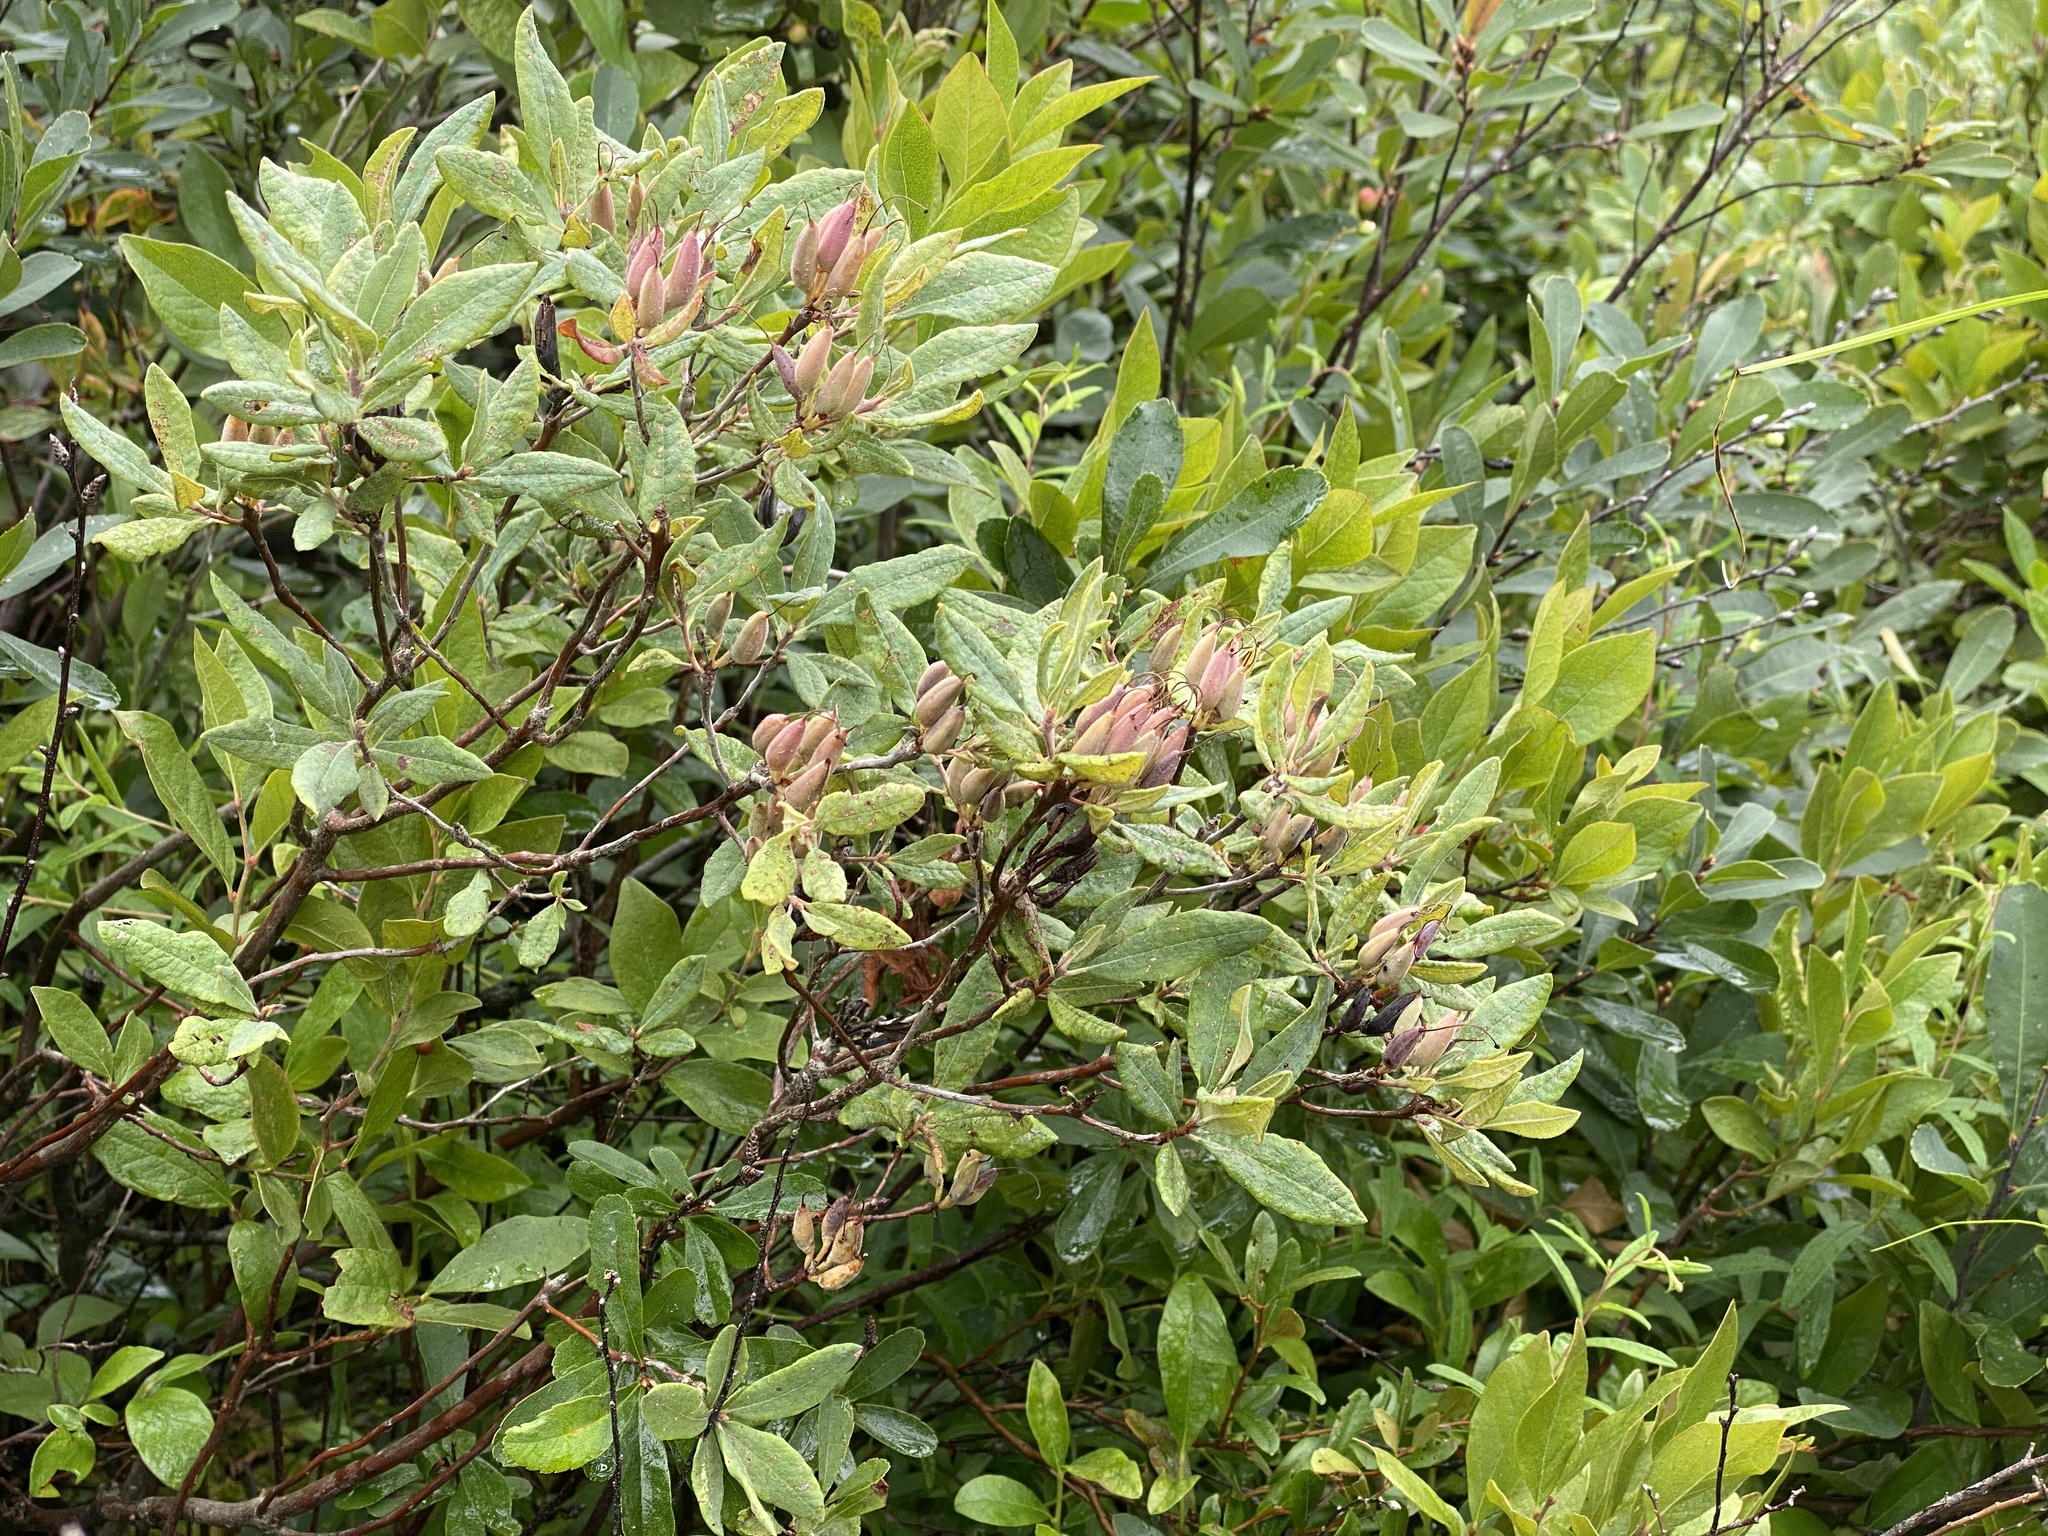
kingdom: Plantae
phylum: Tracheophyta
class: Magnoliopsida
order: Ericales
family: Ericaceae
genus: Rhododendron
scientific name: Rhododendron canadense
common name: Rhodora
